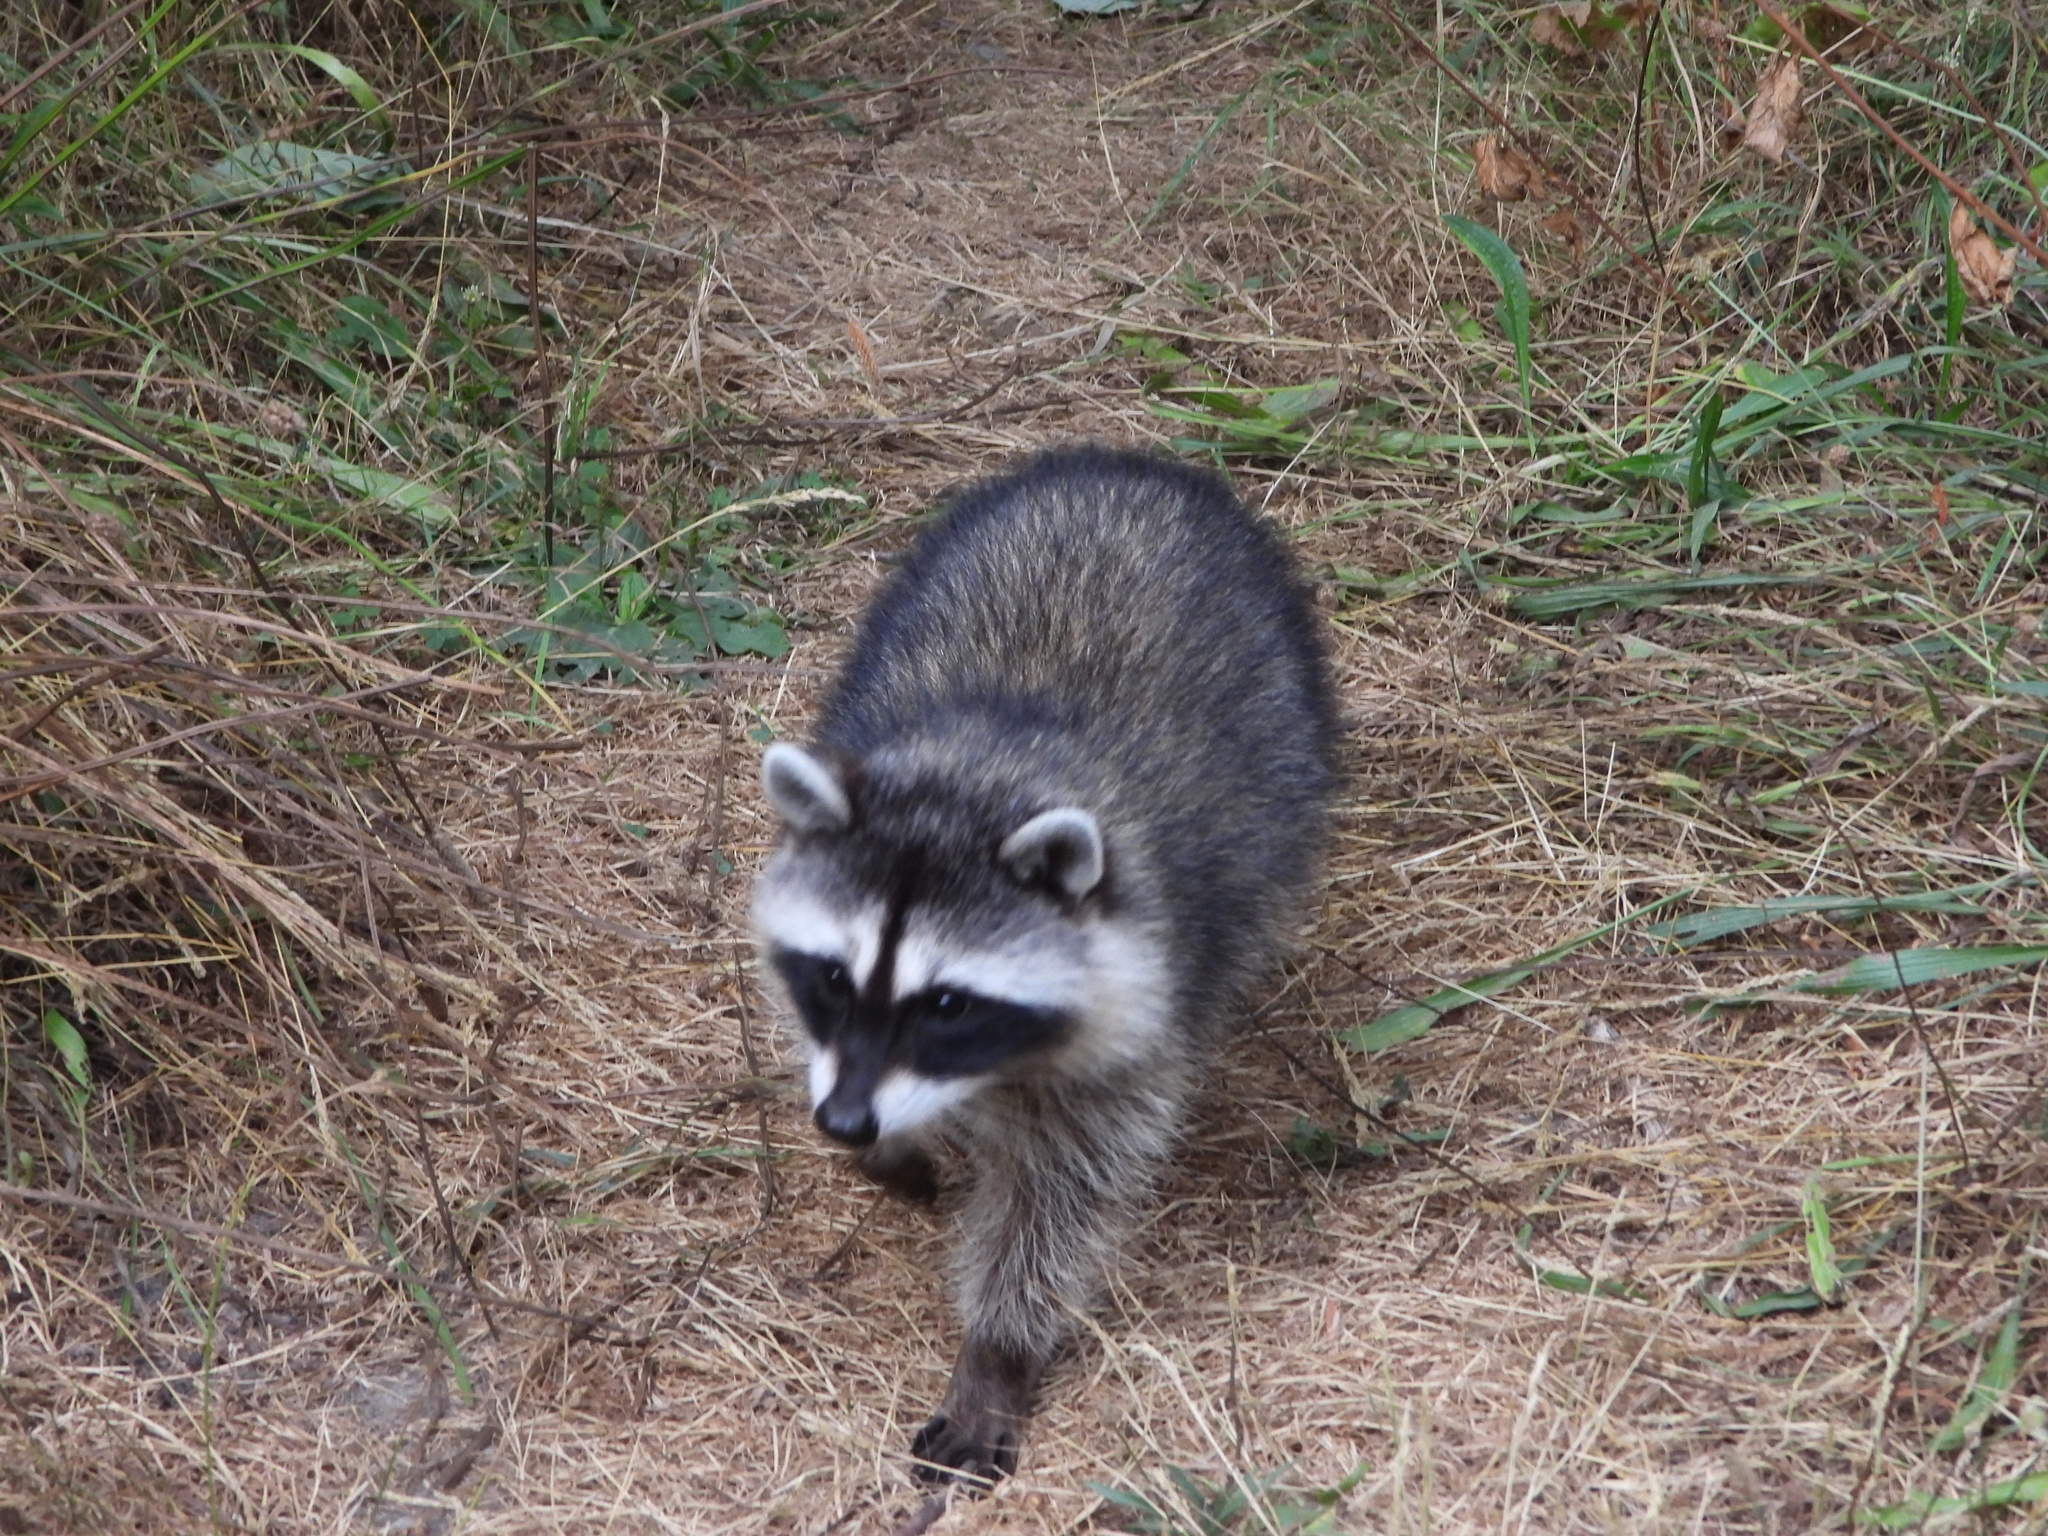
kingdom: Animalia
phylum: Chordata
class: Mammalia
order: Carnivora
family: Procyonidae
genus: Procyon
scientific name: Procyon lotor
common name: Raccoon
